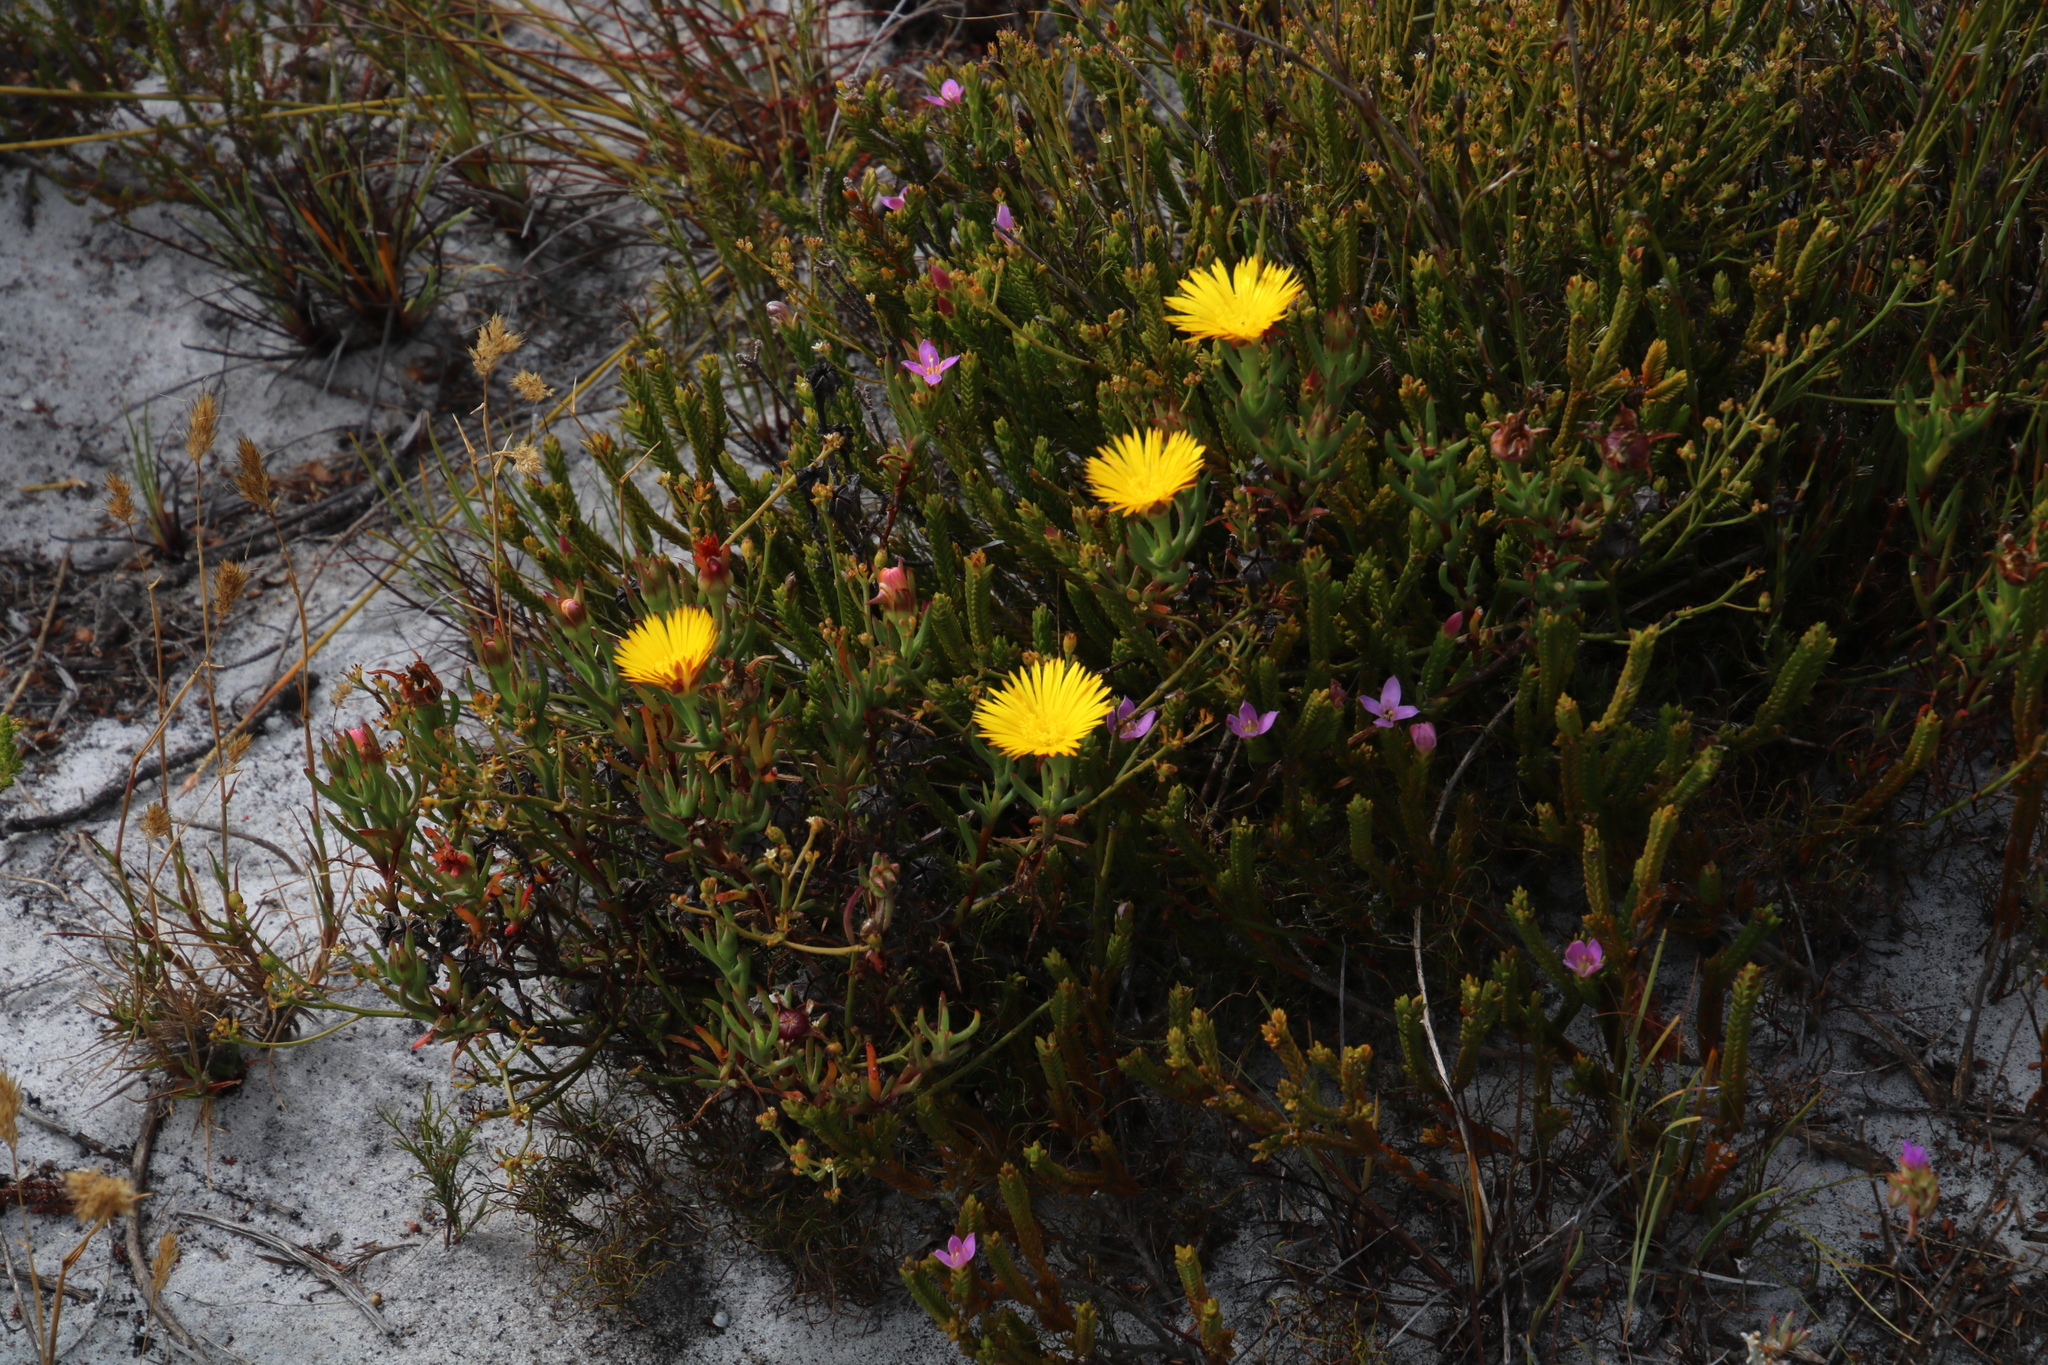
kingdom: Plantae
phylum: Tracheophyta
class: Magnoliopsida
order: Caryophyllales
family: Aizoaceae
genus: Lampranthus
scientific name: Lampranthus bicolor
